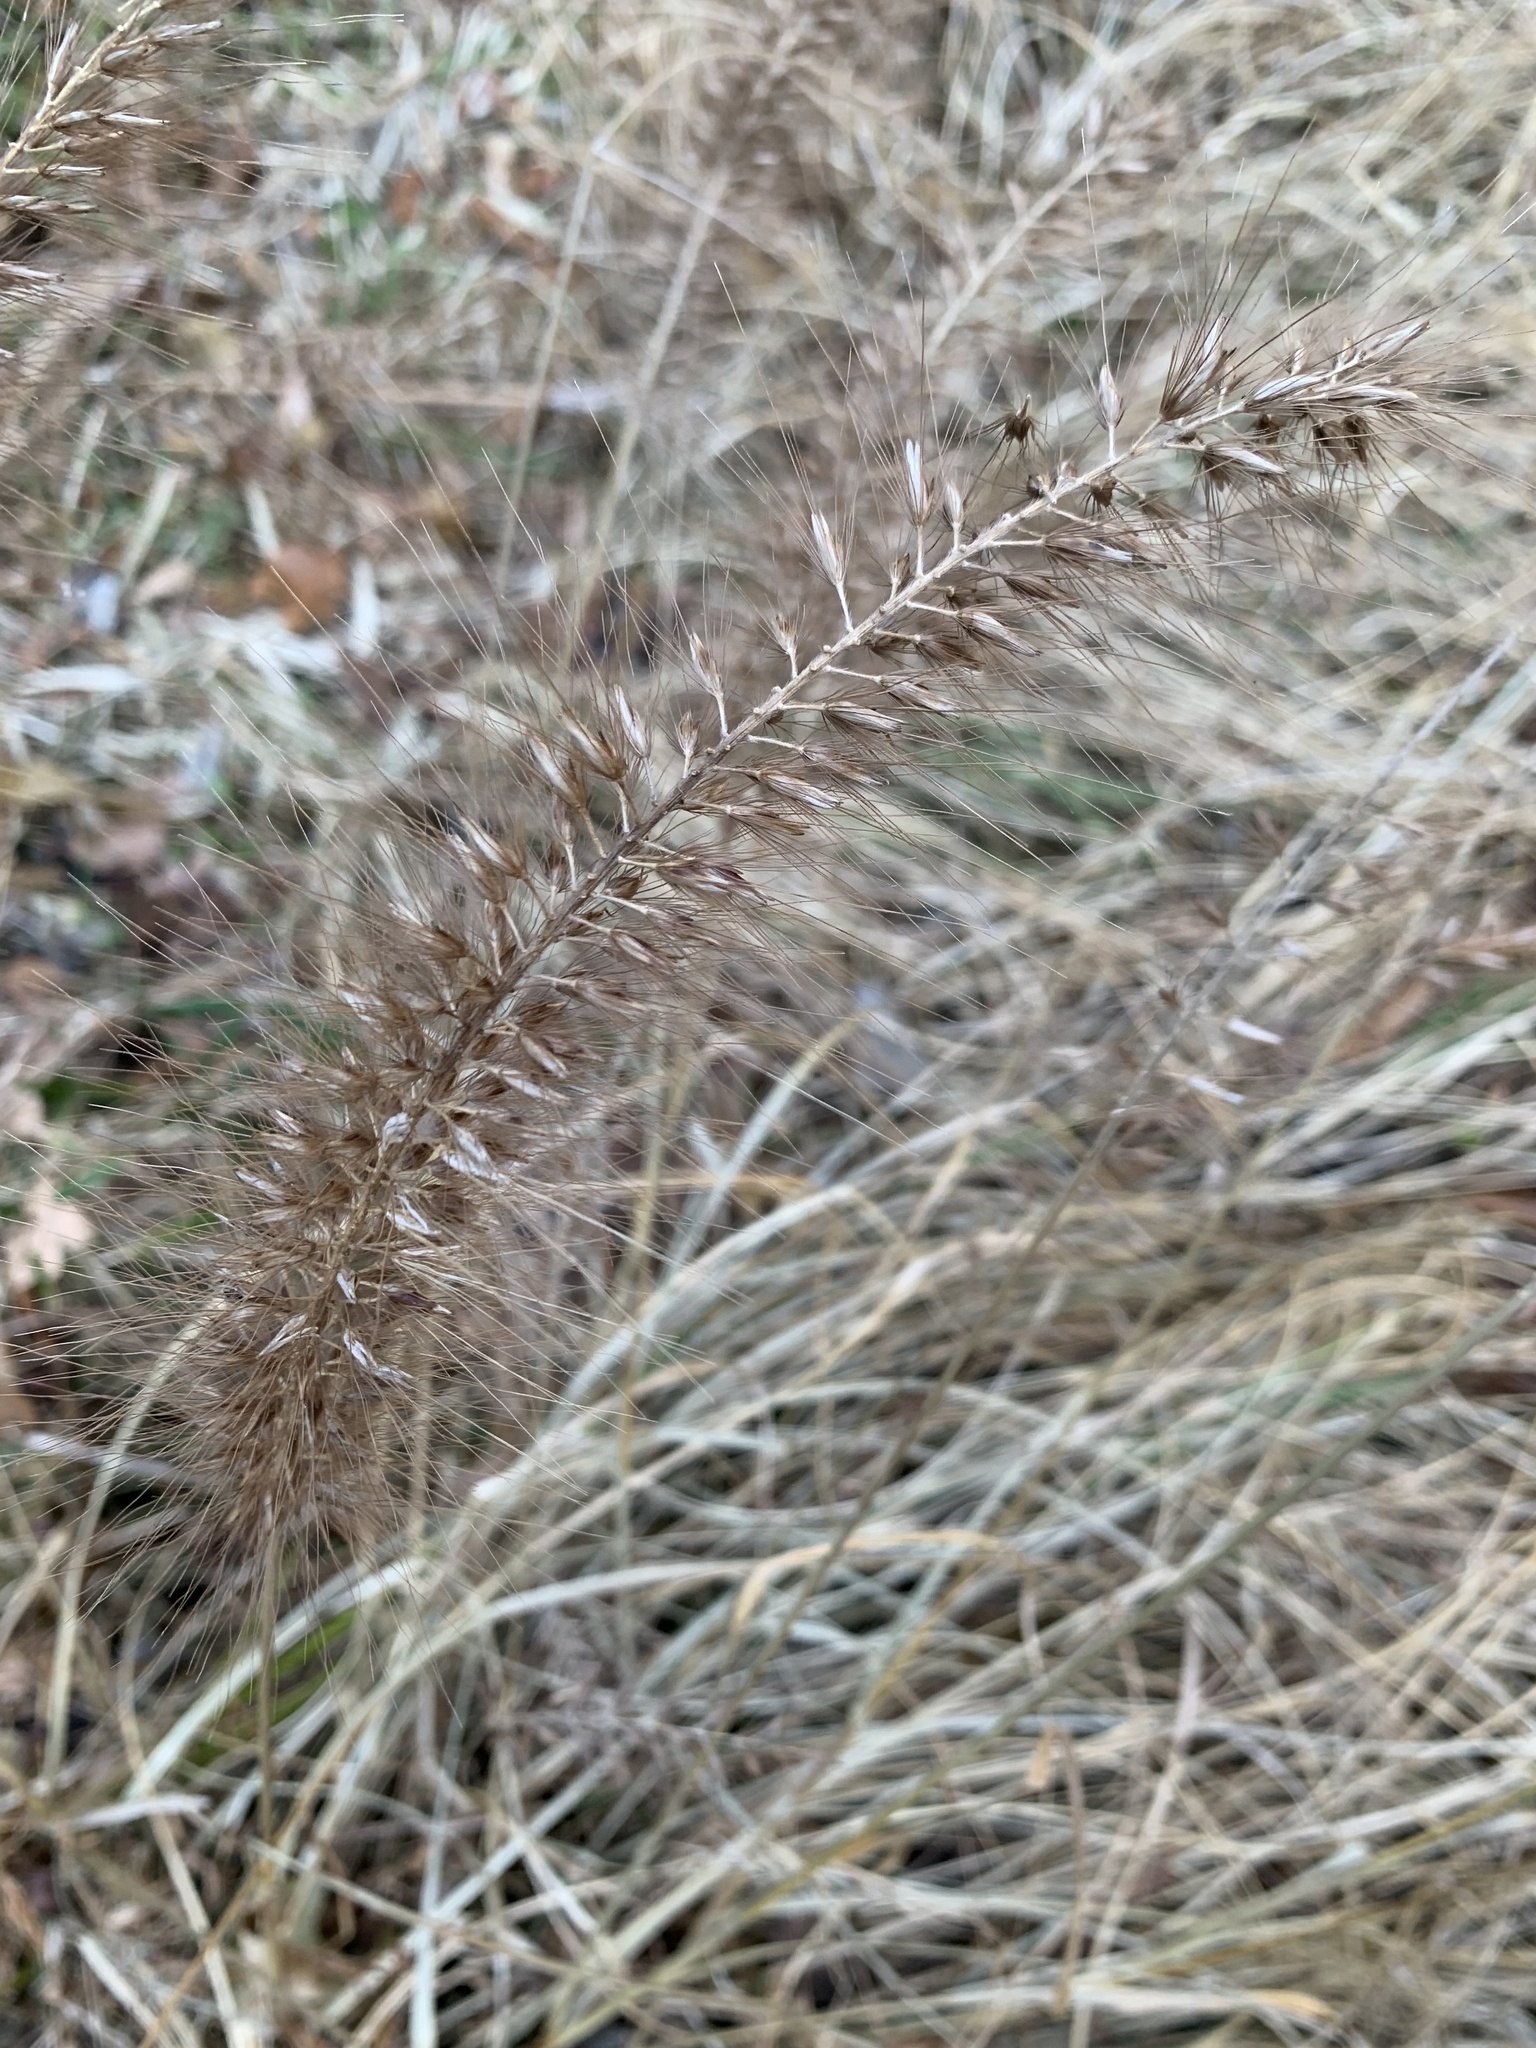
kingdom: Plantae
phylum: Tracheophyta
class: Liliopsida
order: Poales
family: Poaceae
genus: Cenchrus
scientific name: Cenchrus alopecuroides
